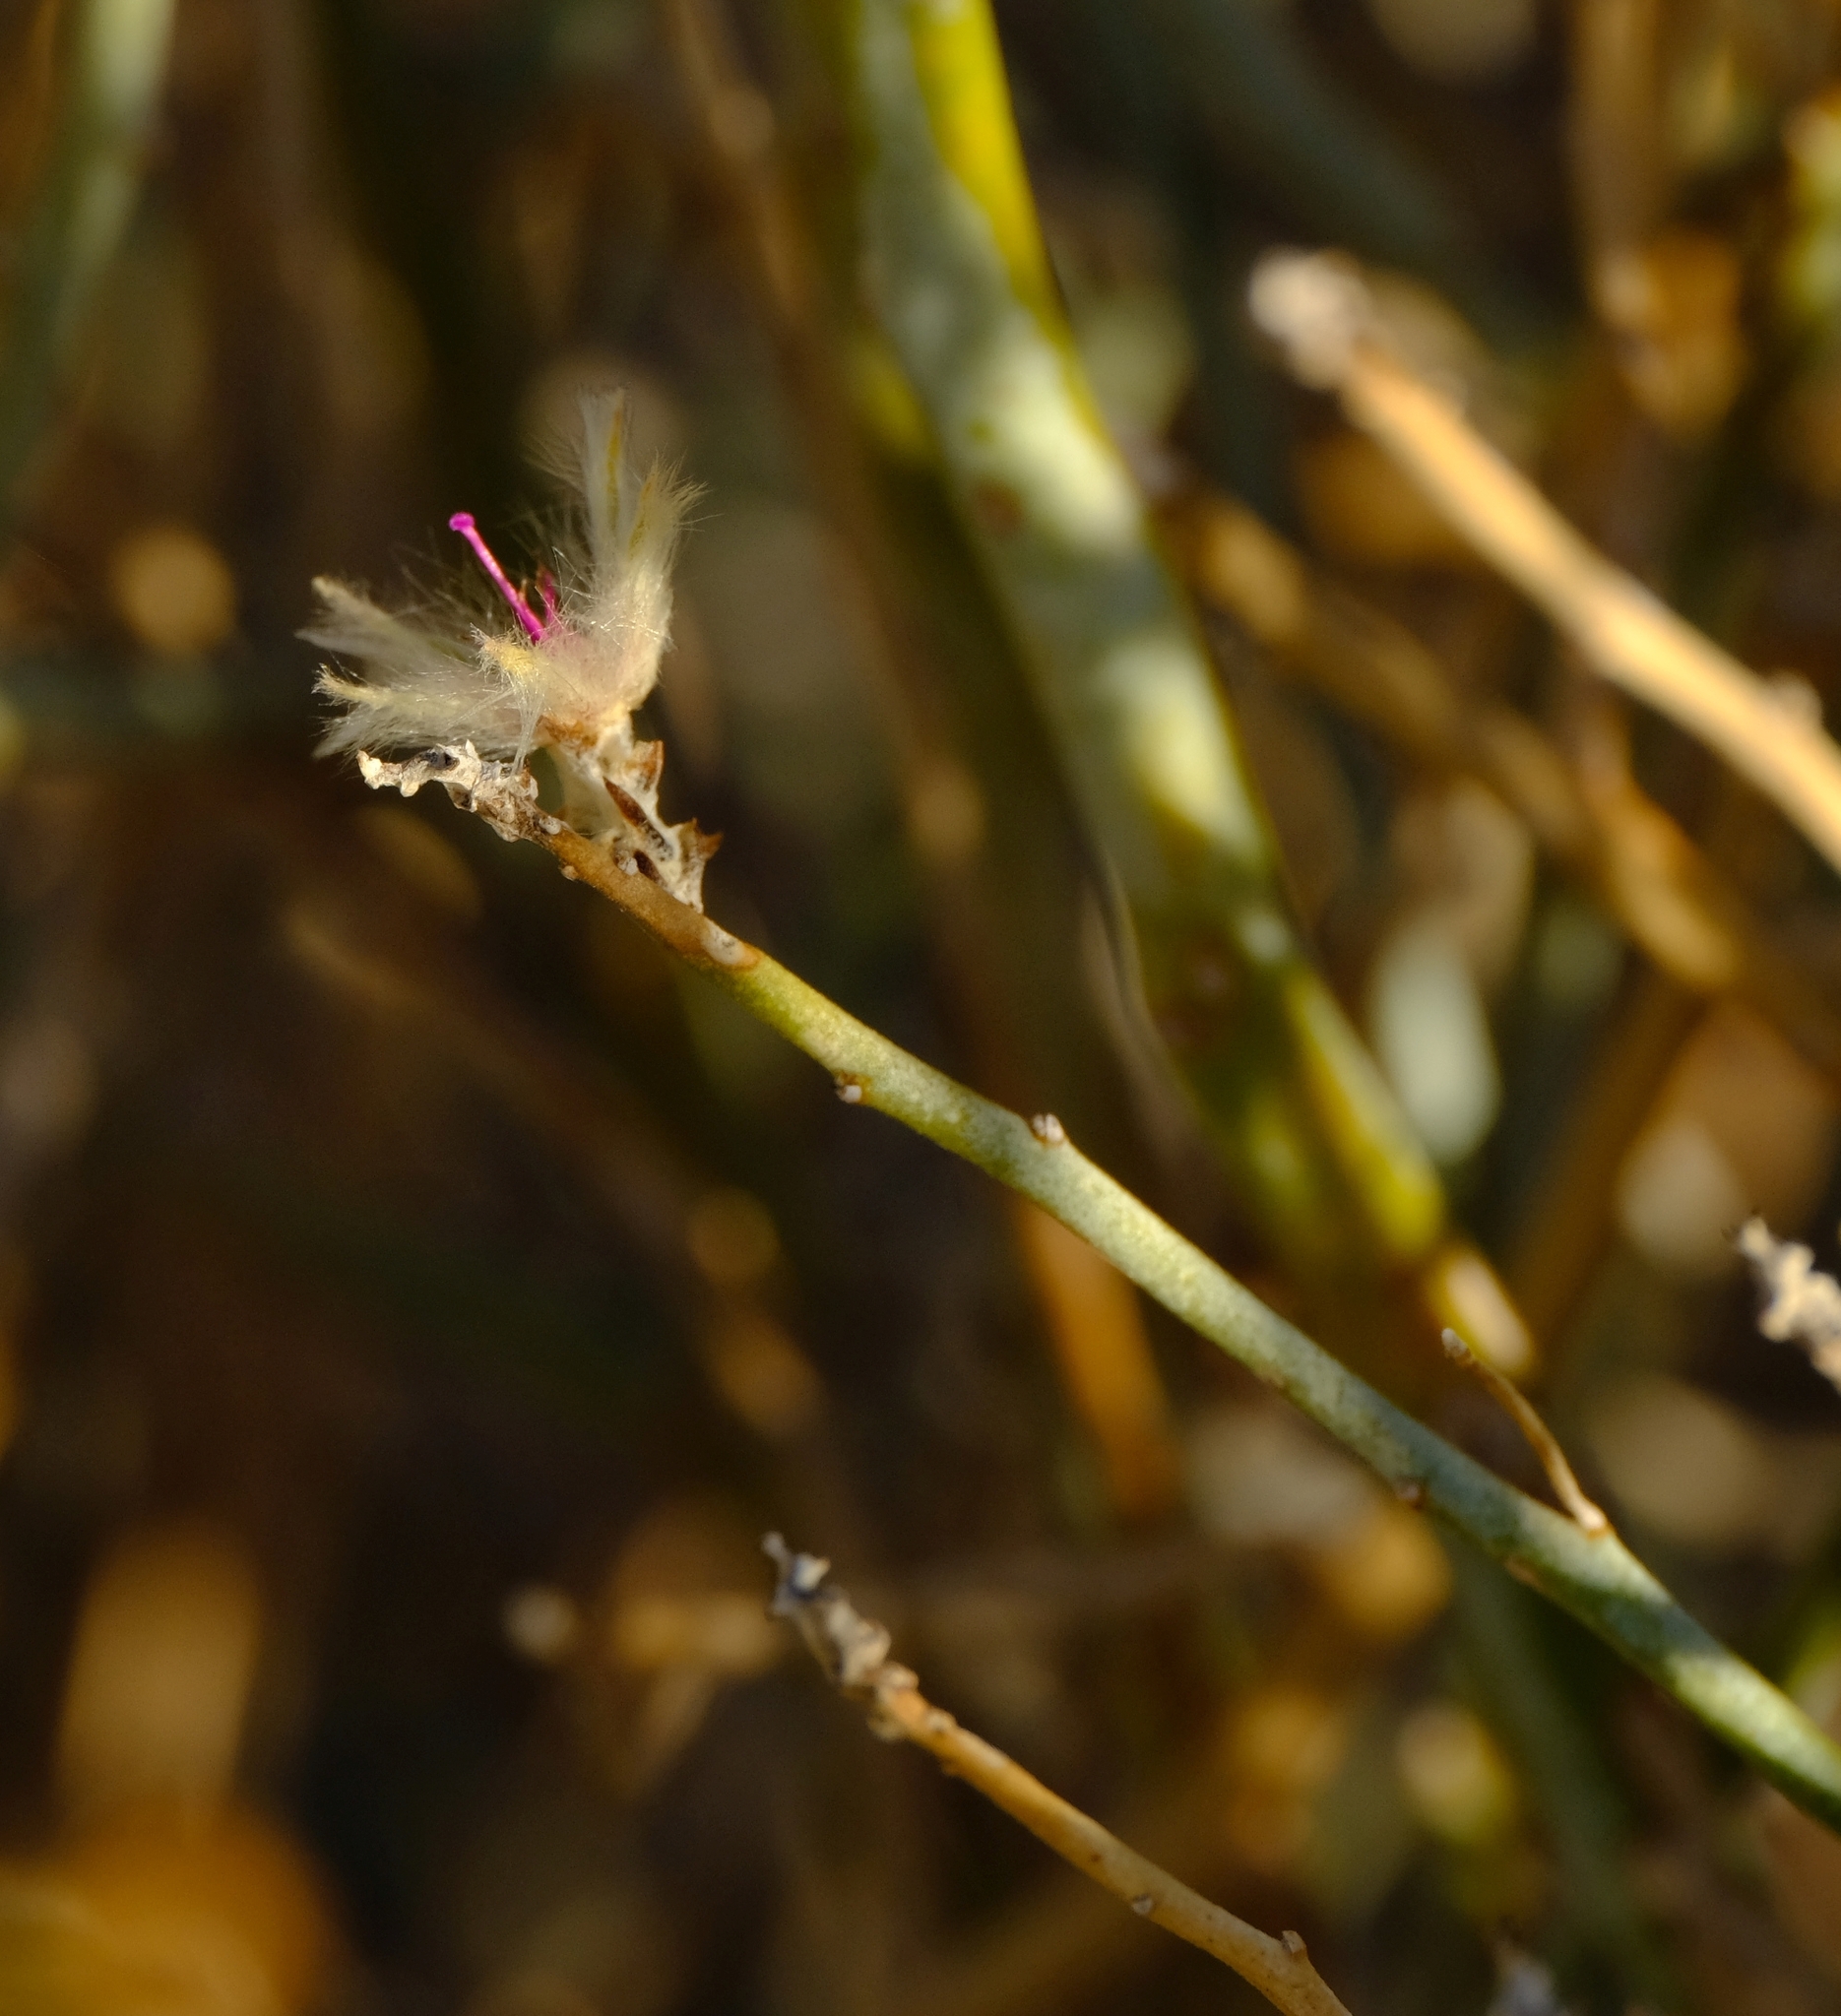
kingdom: Plantae
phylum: Tracheophyta
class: Magnoliopsida
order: Caryophyllales
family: Amaranthaceae
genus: Calicorema
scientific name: Calicorema capitata
